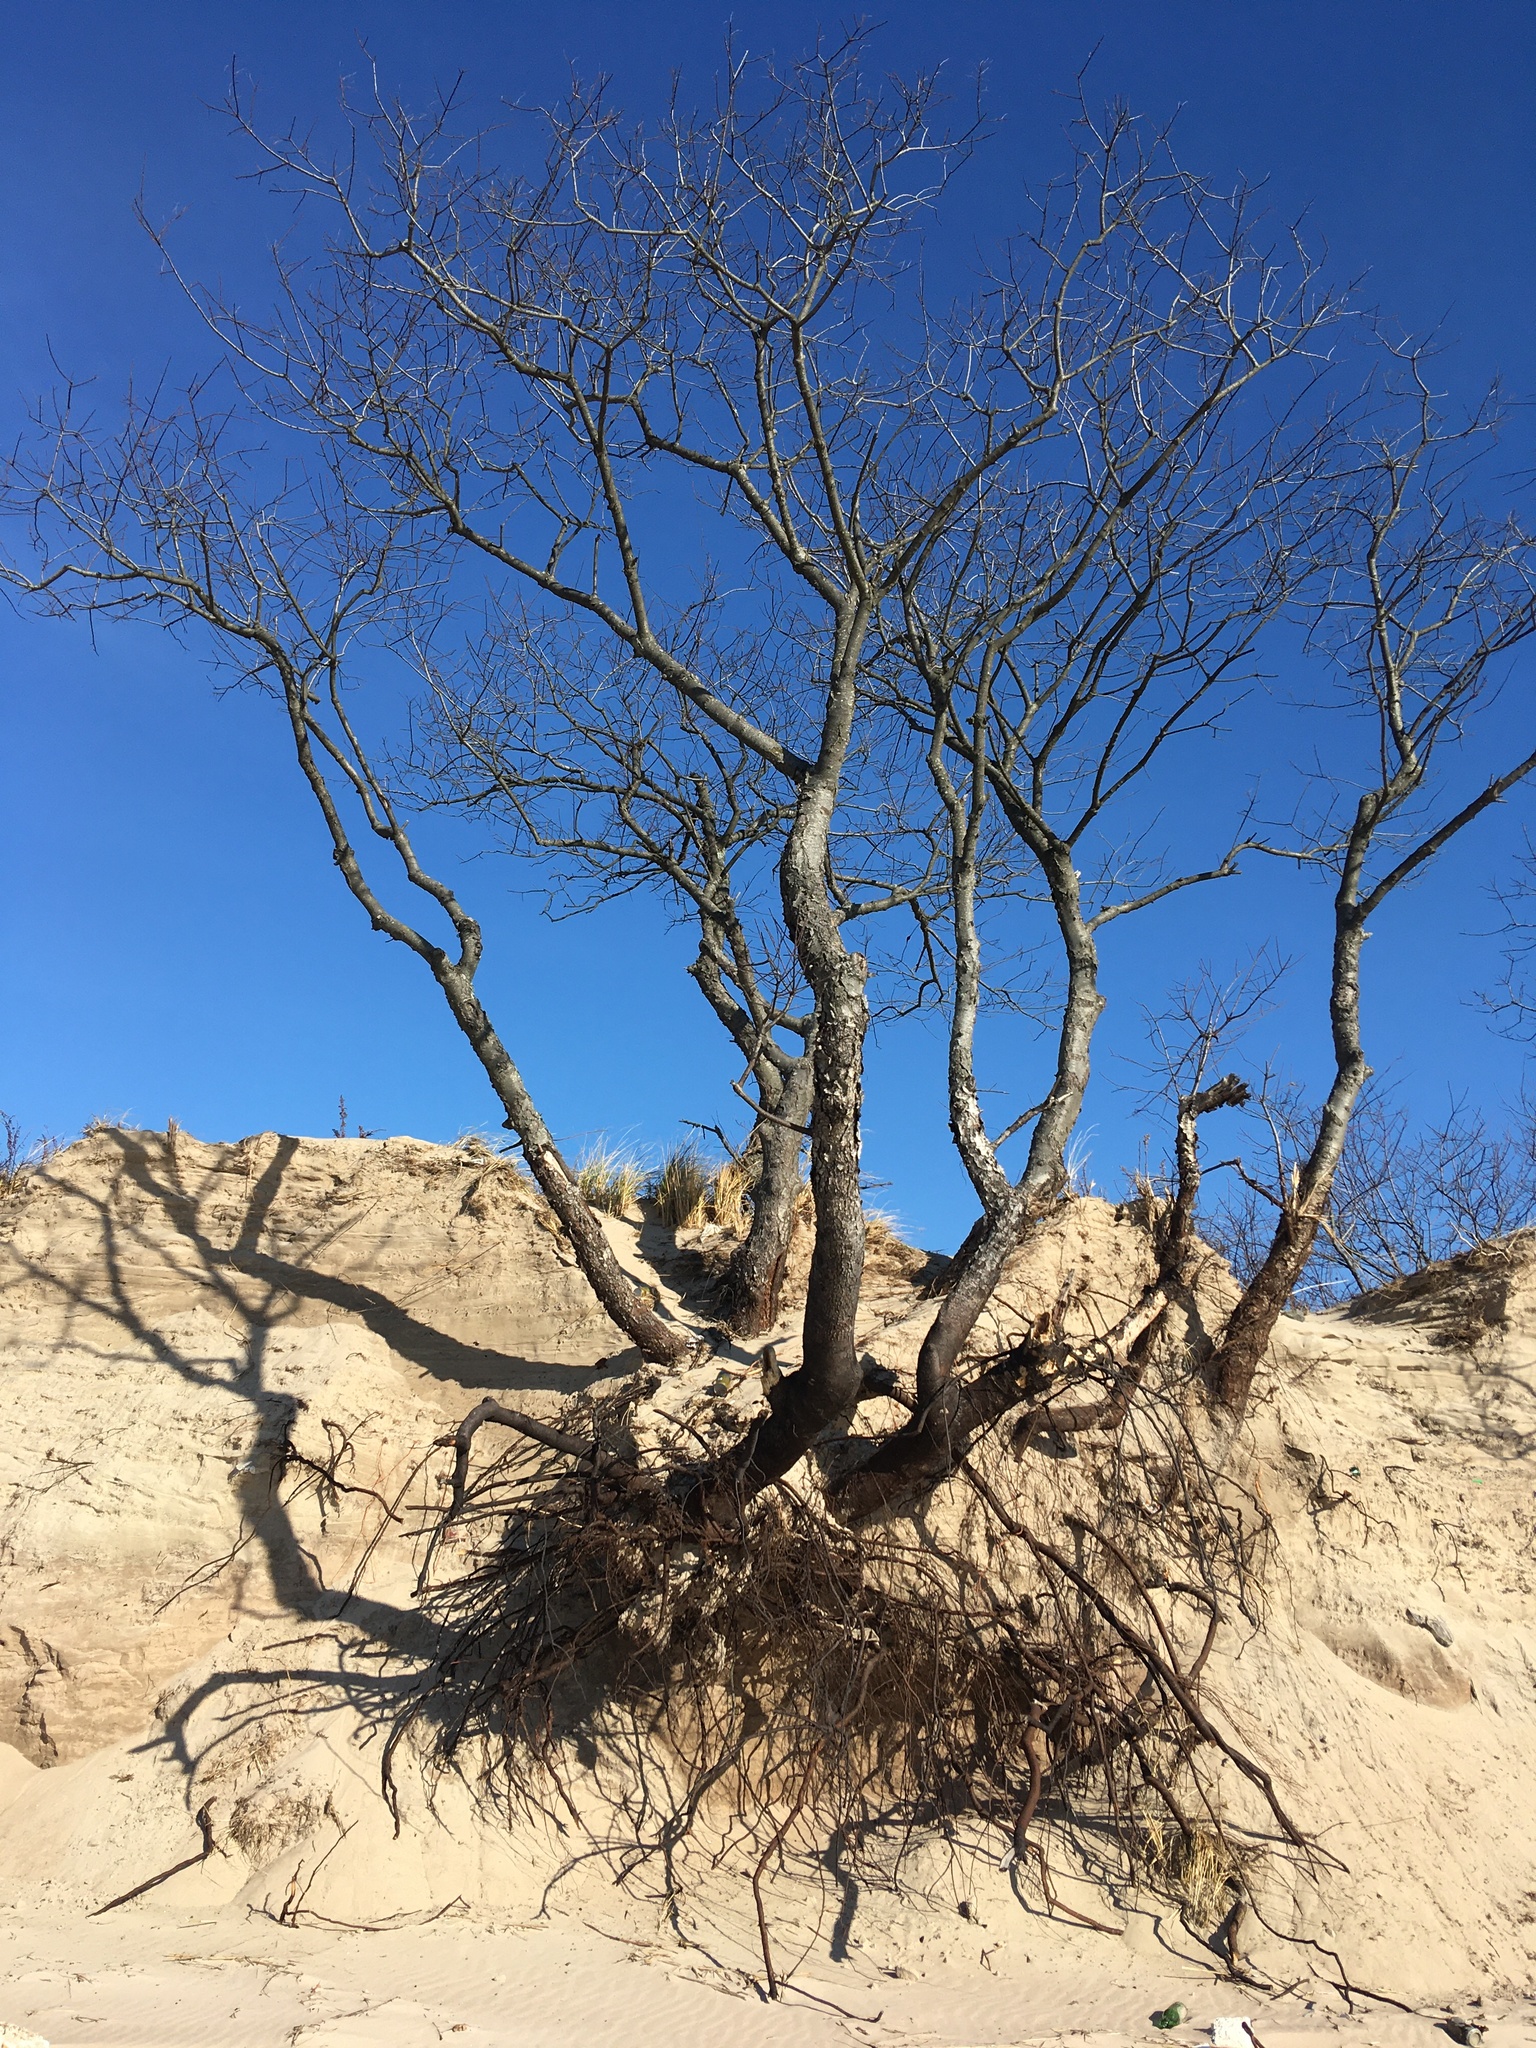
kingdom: Plantae
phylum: Tracheophyta
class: Magnoliopsida
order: Rosales
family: Rosaceae
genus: Prunus
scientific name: Prunus serotina
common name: Black cherry
